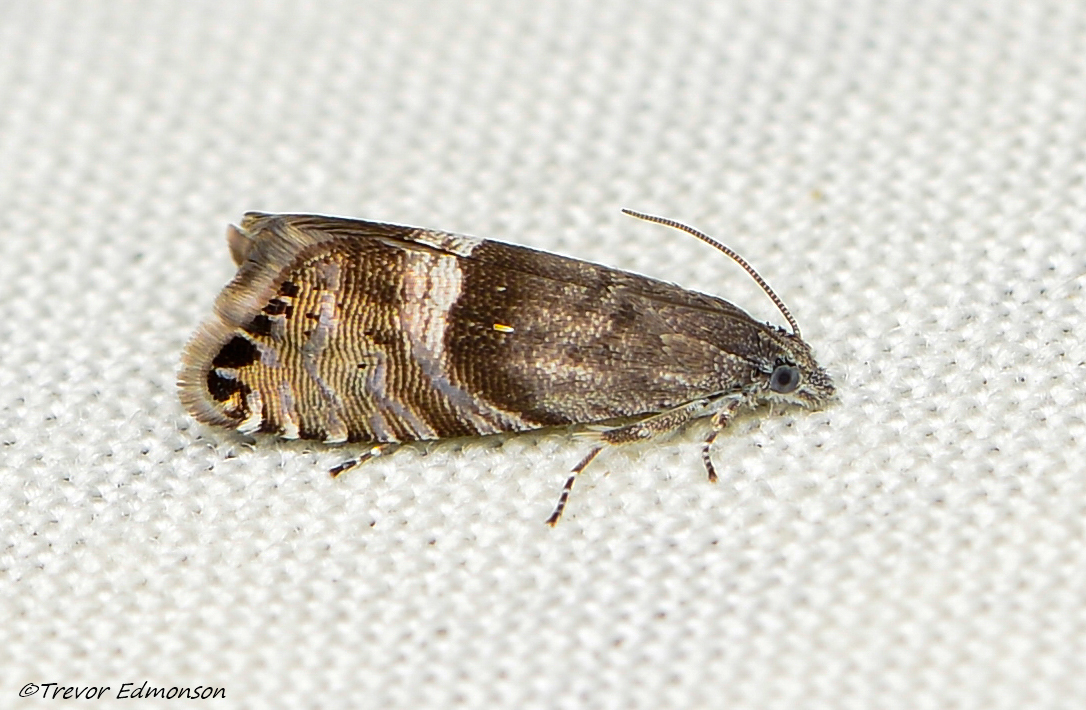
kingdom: Animalia
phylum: Arthropoda
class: Insecta
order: Lepidoptera
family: Tortricidae
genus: Sereda
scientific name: Sereda tautana
